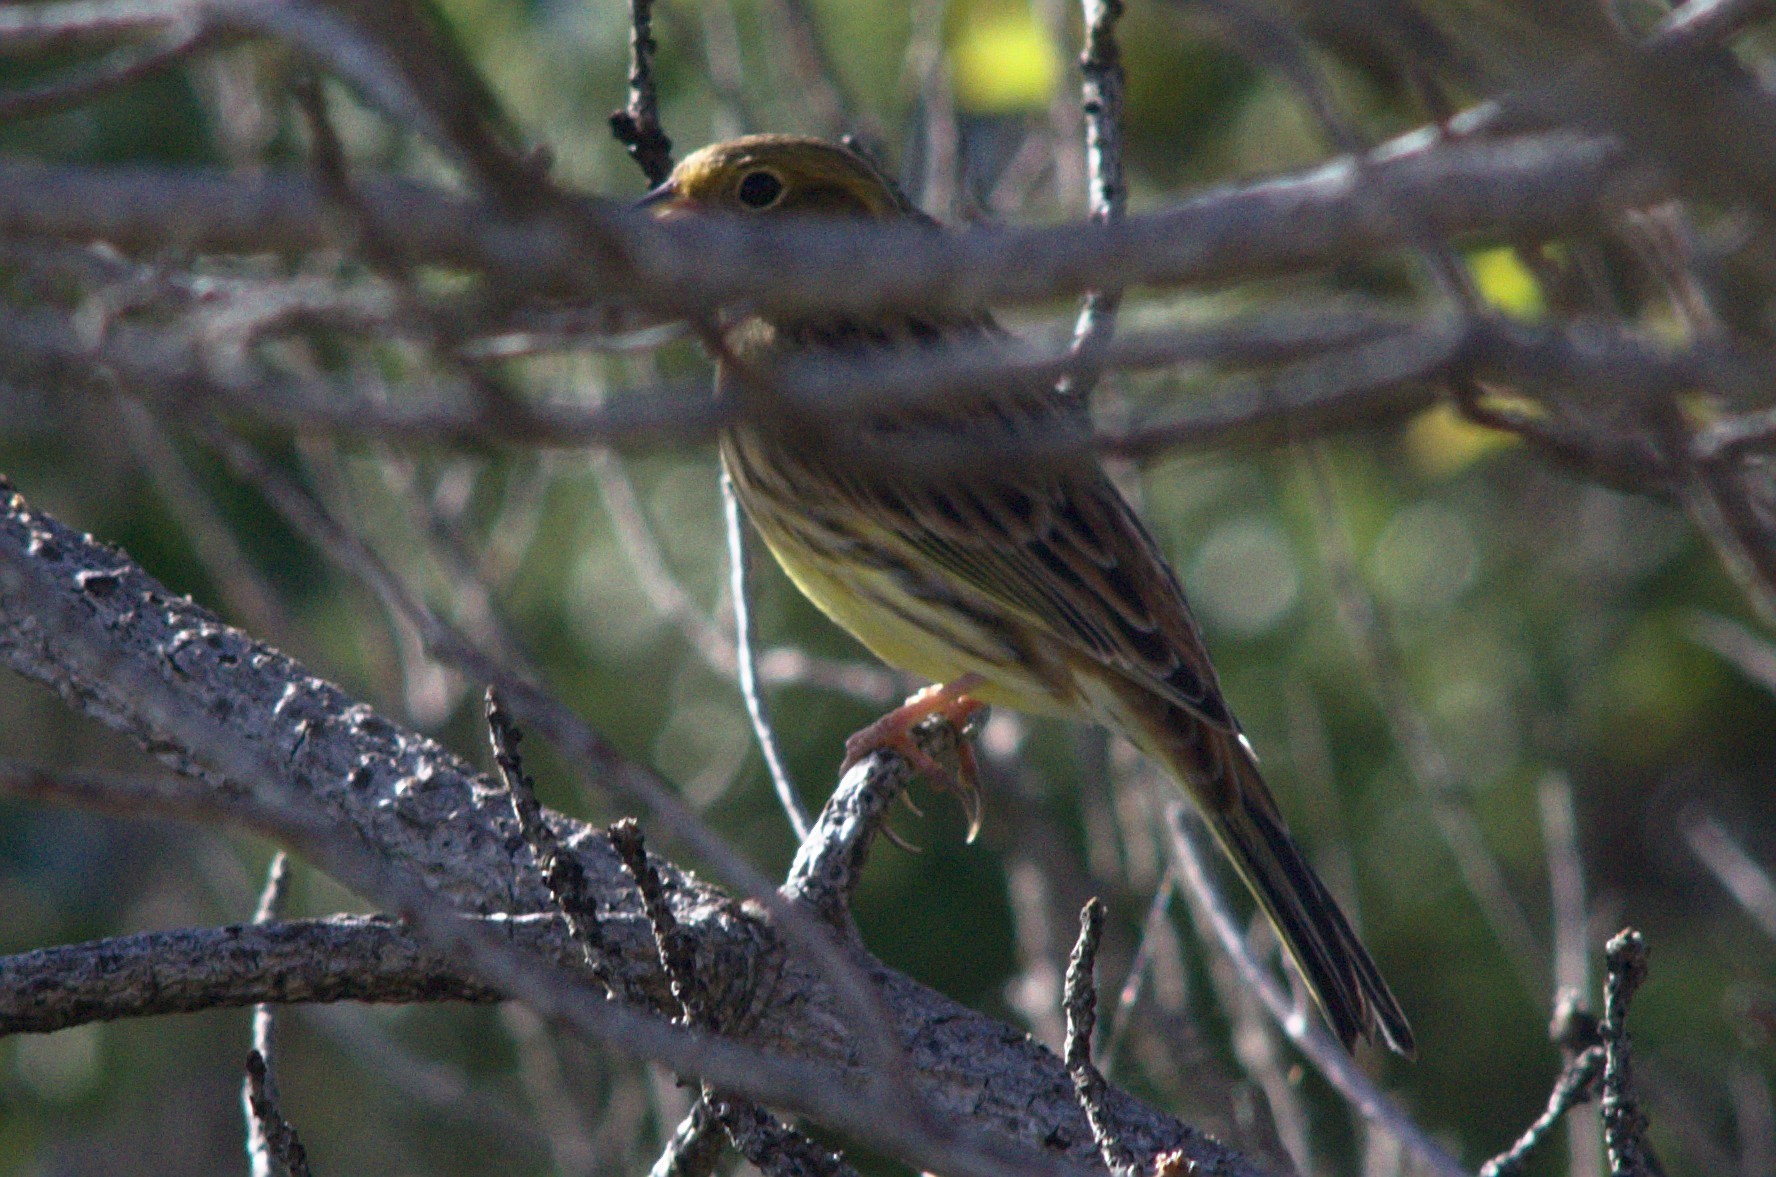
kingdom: Animalia
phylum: Chordata
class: Aves
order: Passeriformes
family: Emberizidae
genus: Emberiza
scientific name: Emberiza citrinella
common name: Yellowhammer
